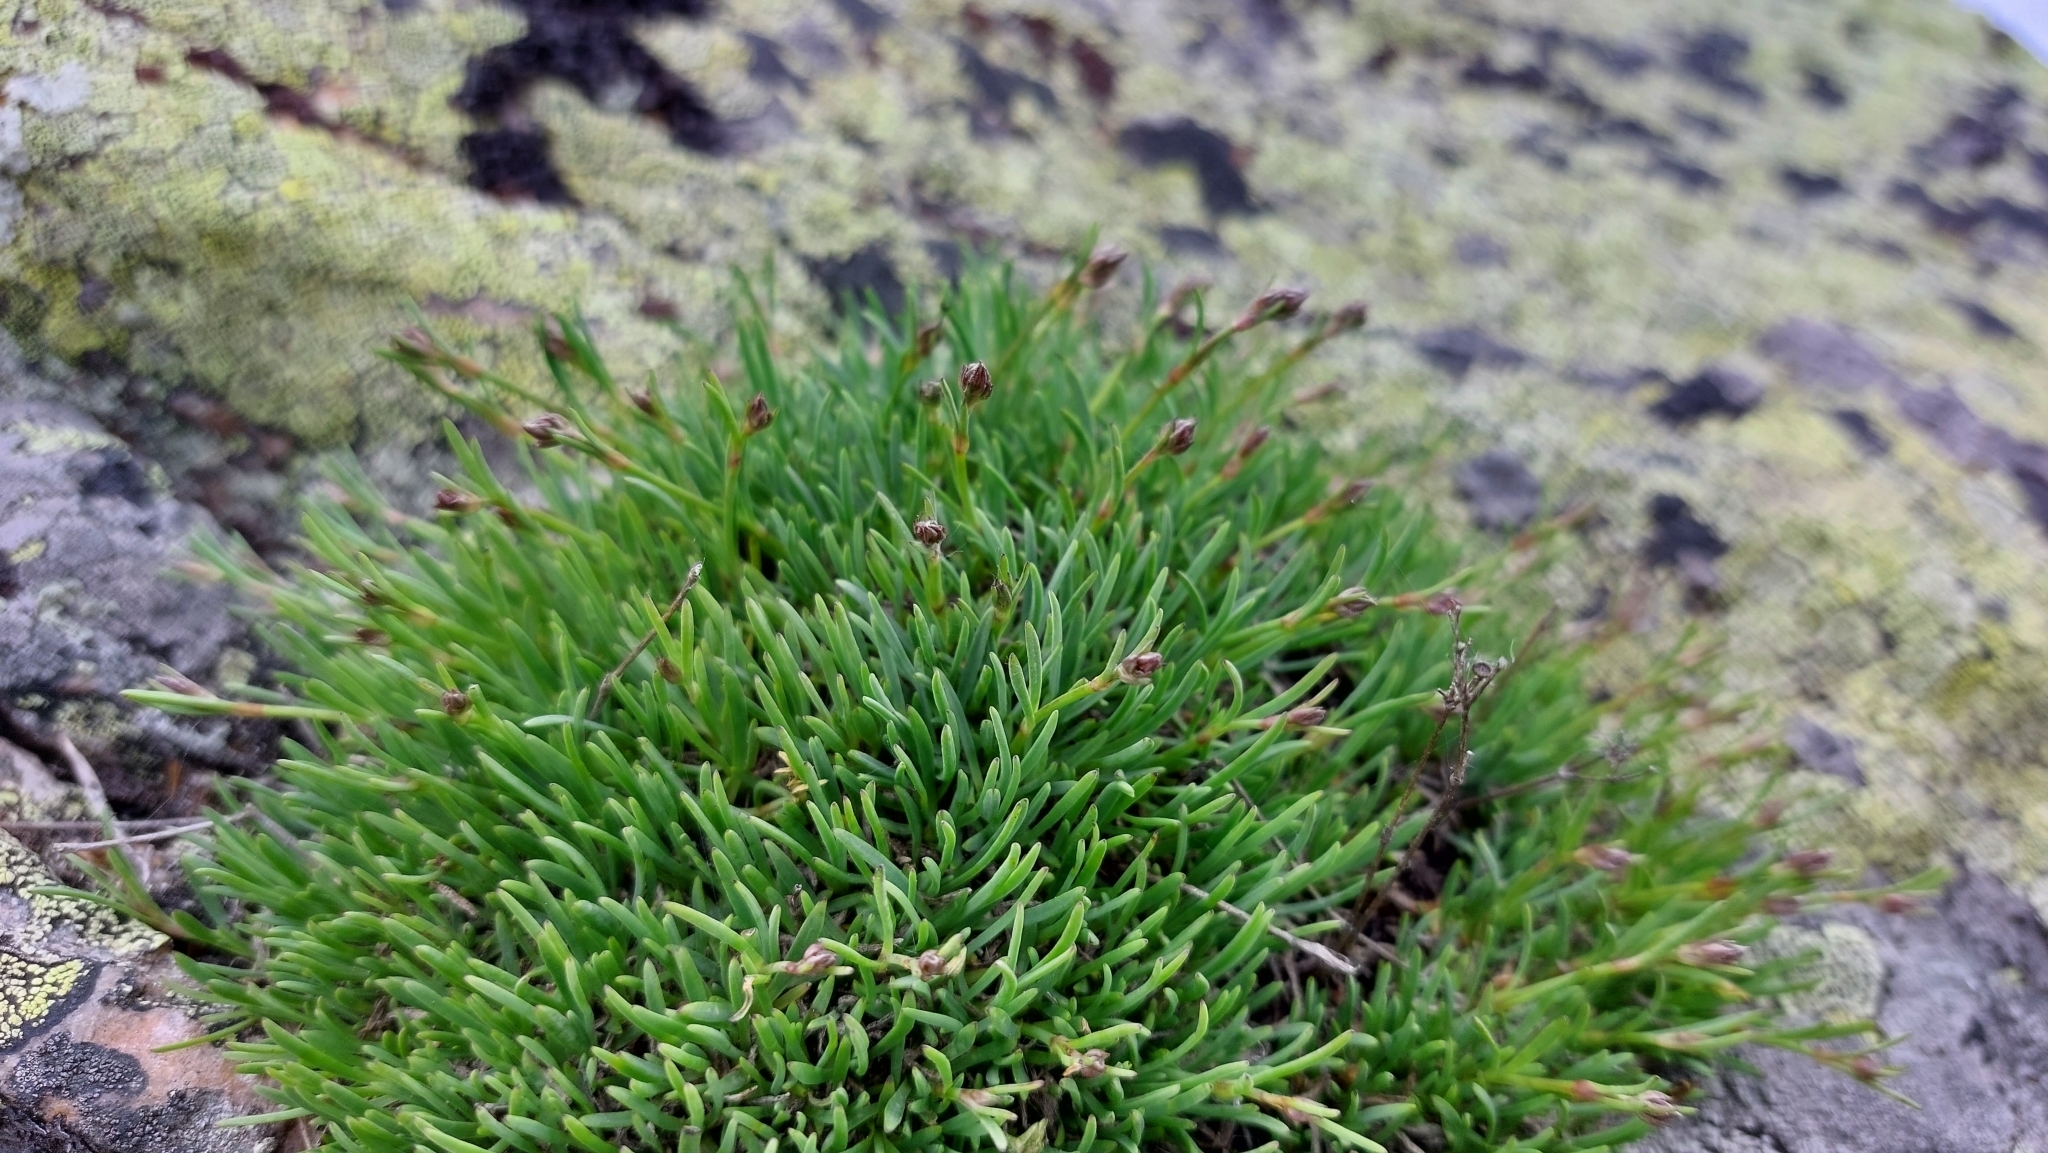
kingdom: Plantae
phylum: Tracheophyta
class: Magnoliopsida
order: Caryophyllales
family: Caryophyllaceae
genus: Gypsophila
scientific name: Gypsophila uralensis
